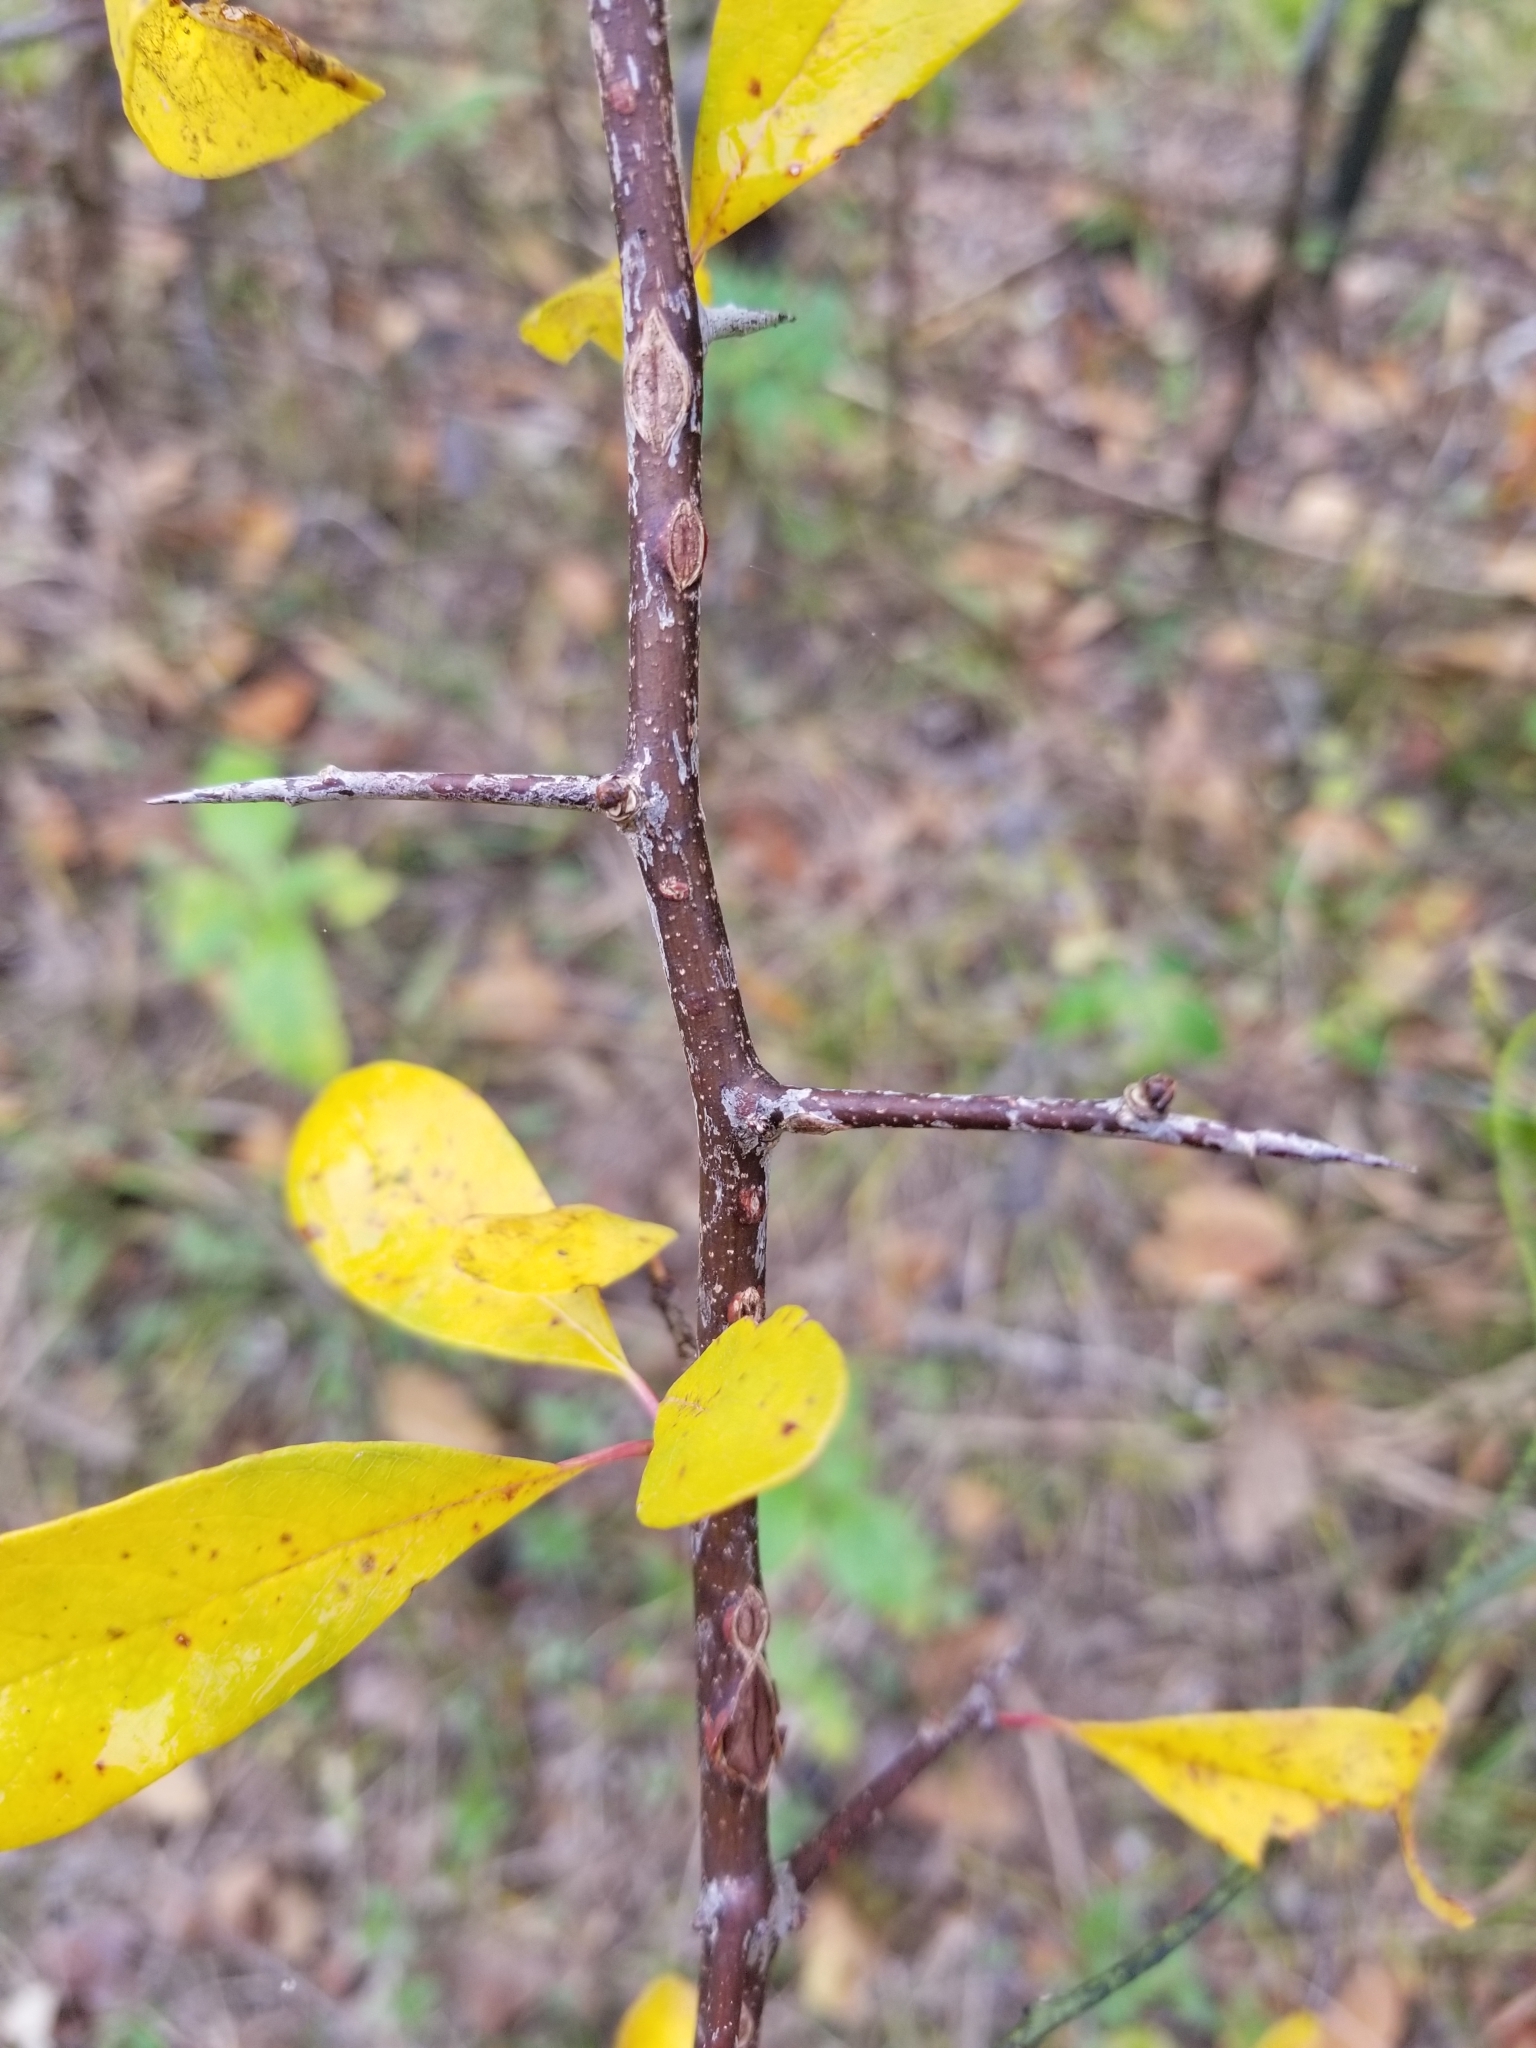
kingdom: Plantae
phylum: Tracheophyta
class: Magnoliopsida
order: Ericales
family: Sapotaceae
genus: Sideroxylon
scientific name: Sideroxylon lanuginosum
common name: Chittamwood
